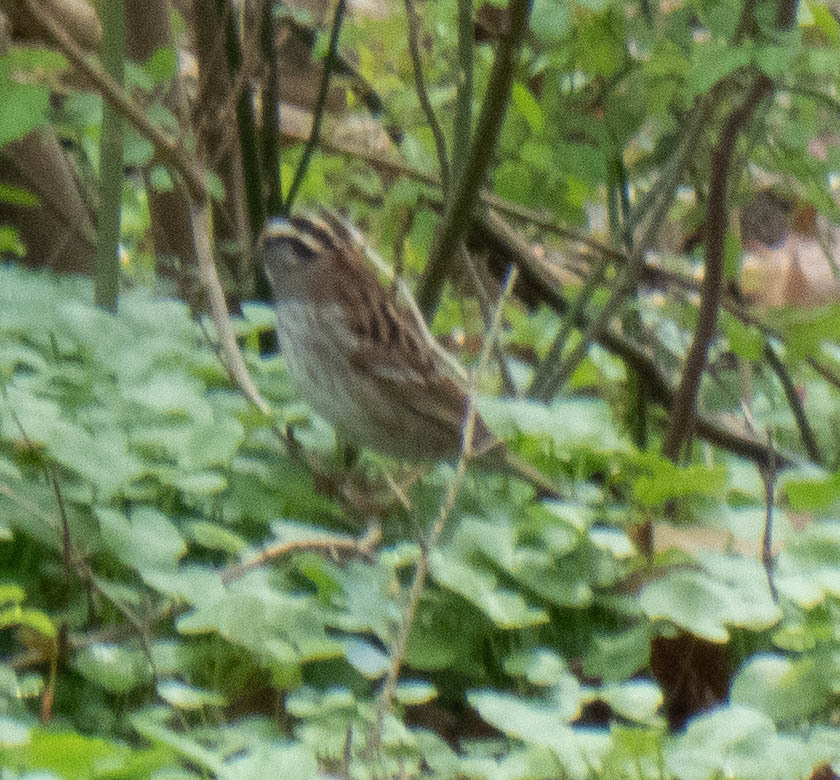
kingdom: Animalia
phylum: Chordata
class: Aves
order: Passeriformes
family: Passerellidae
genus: Zonotrichia
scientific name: Zonotrichia albicollis
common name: White-throated sparrow
